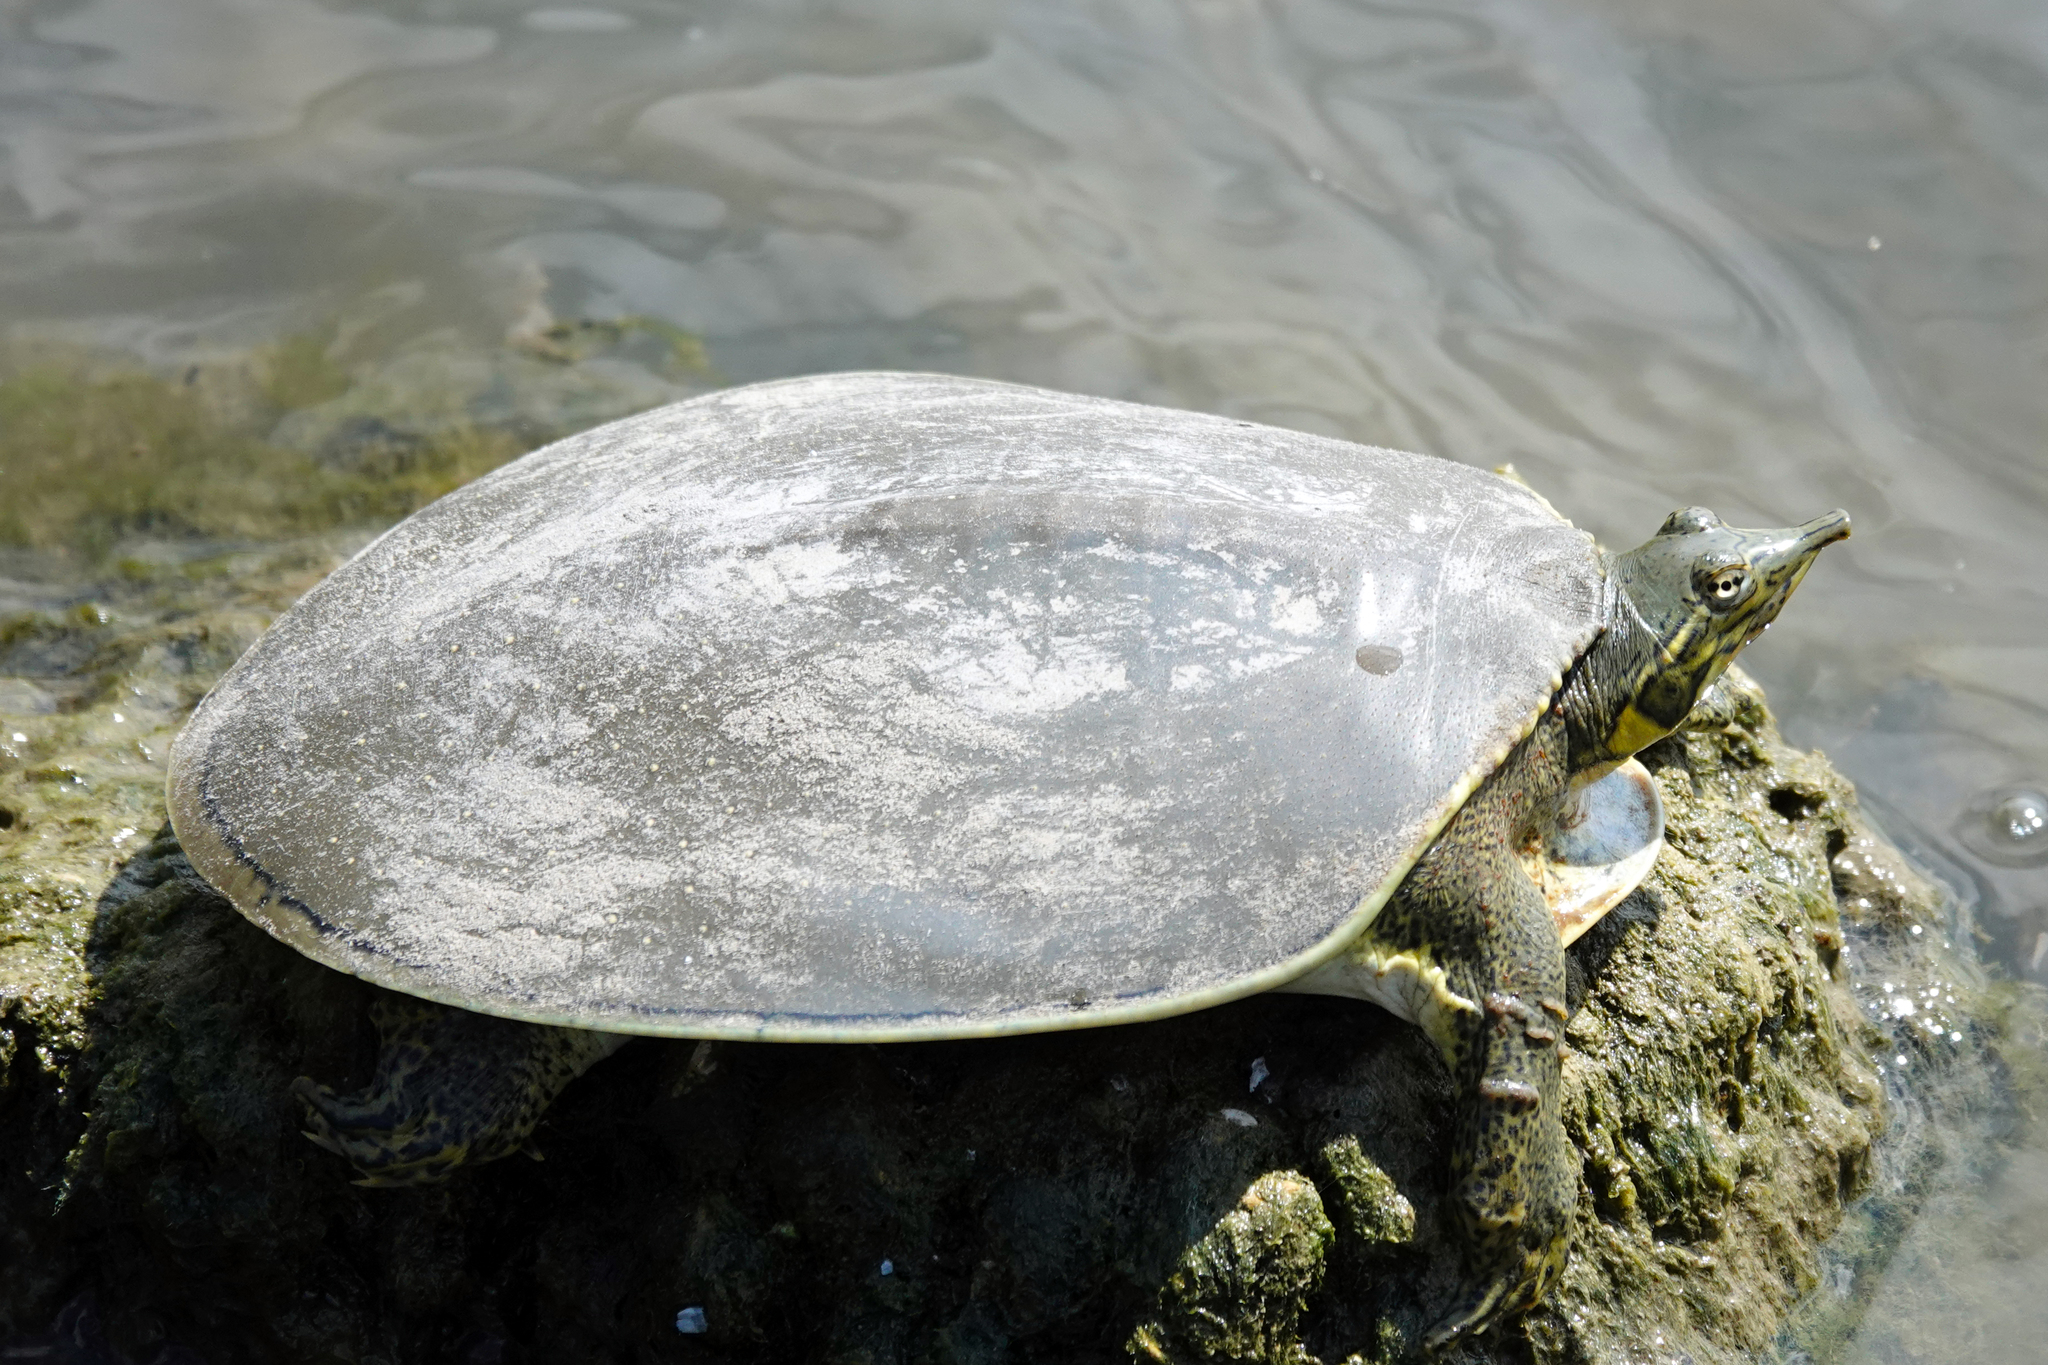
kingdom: Animalia
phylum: Chordata
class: Testudines
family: Trionychidae
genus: Apalone
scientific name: Apalone spinifera
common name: Spiny softshell turtle
